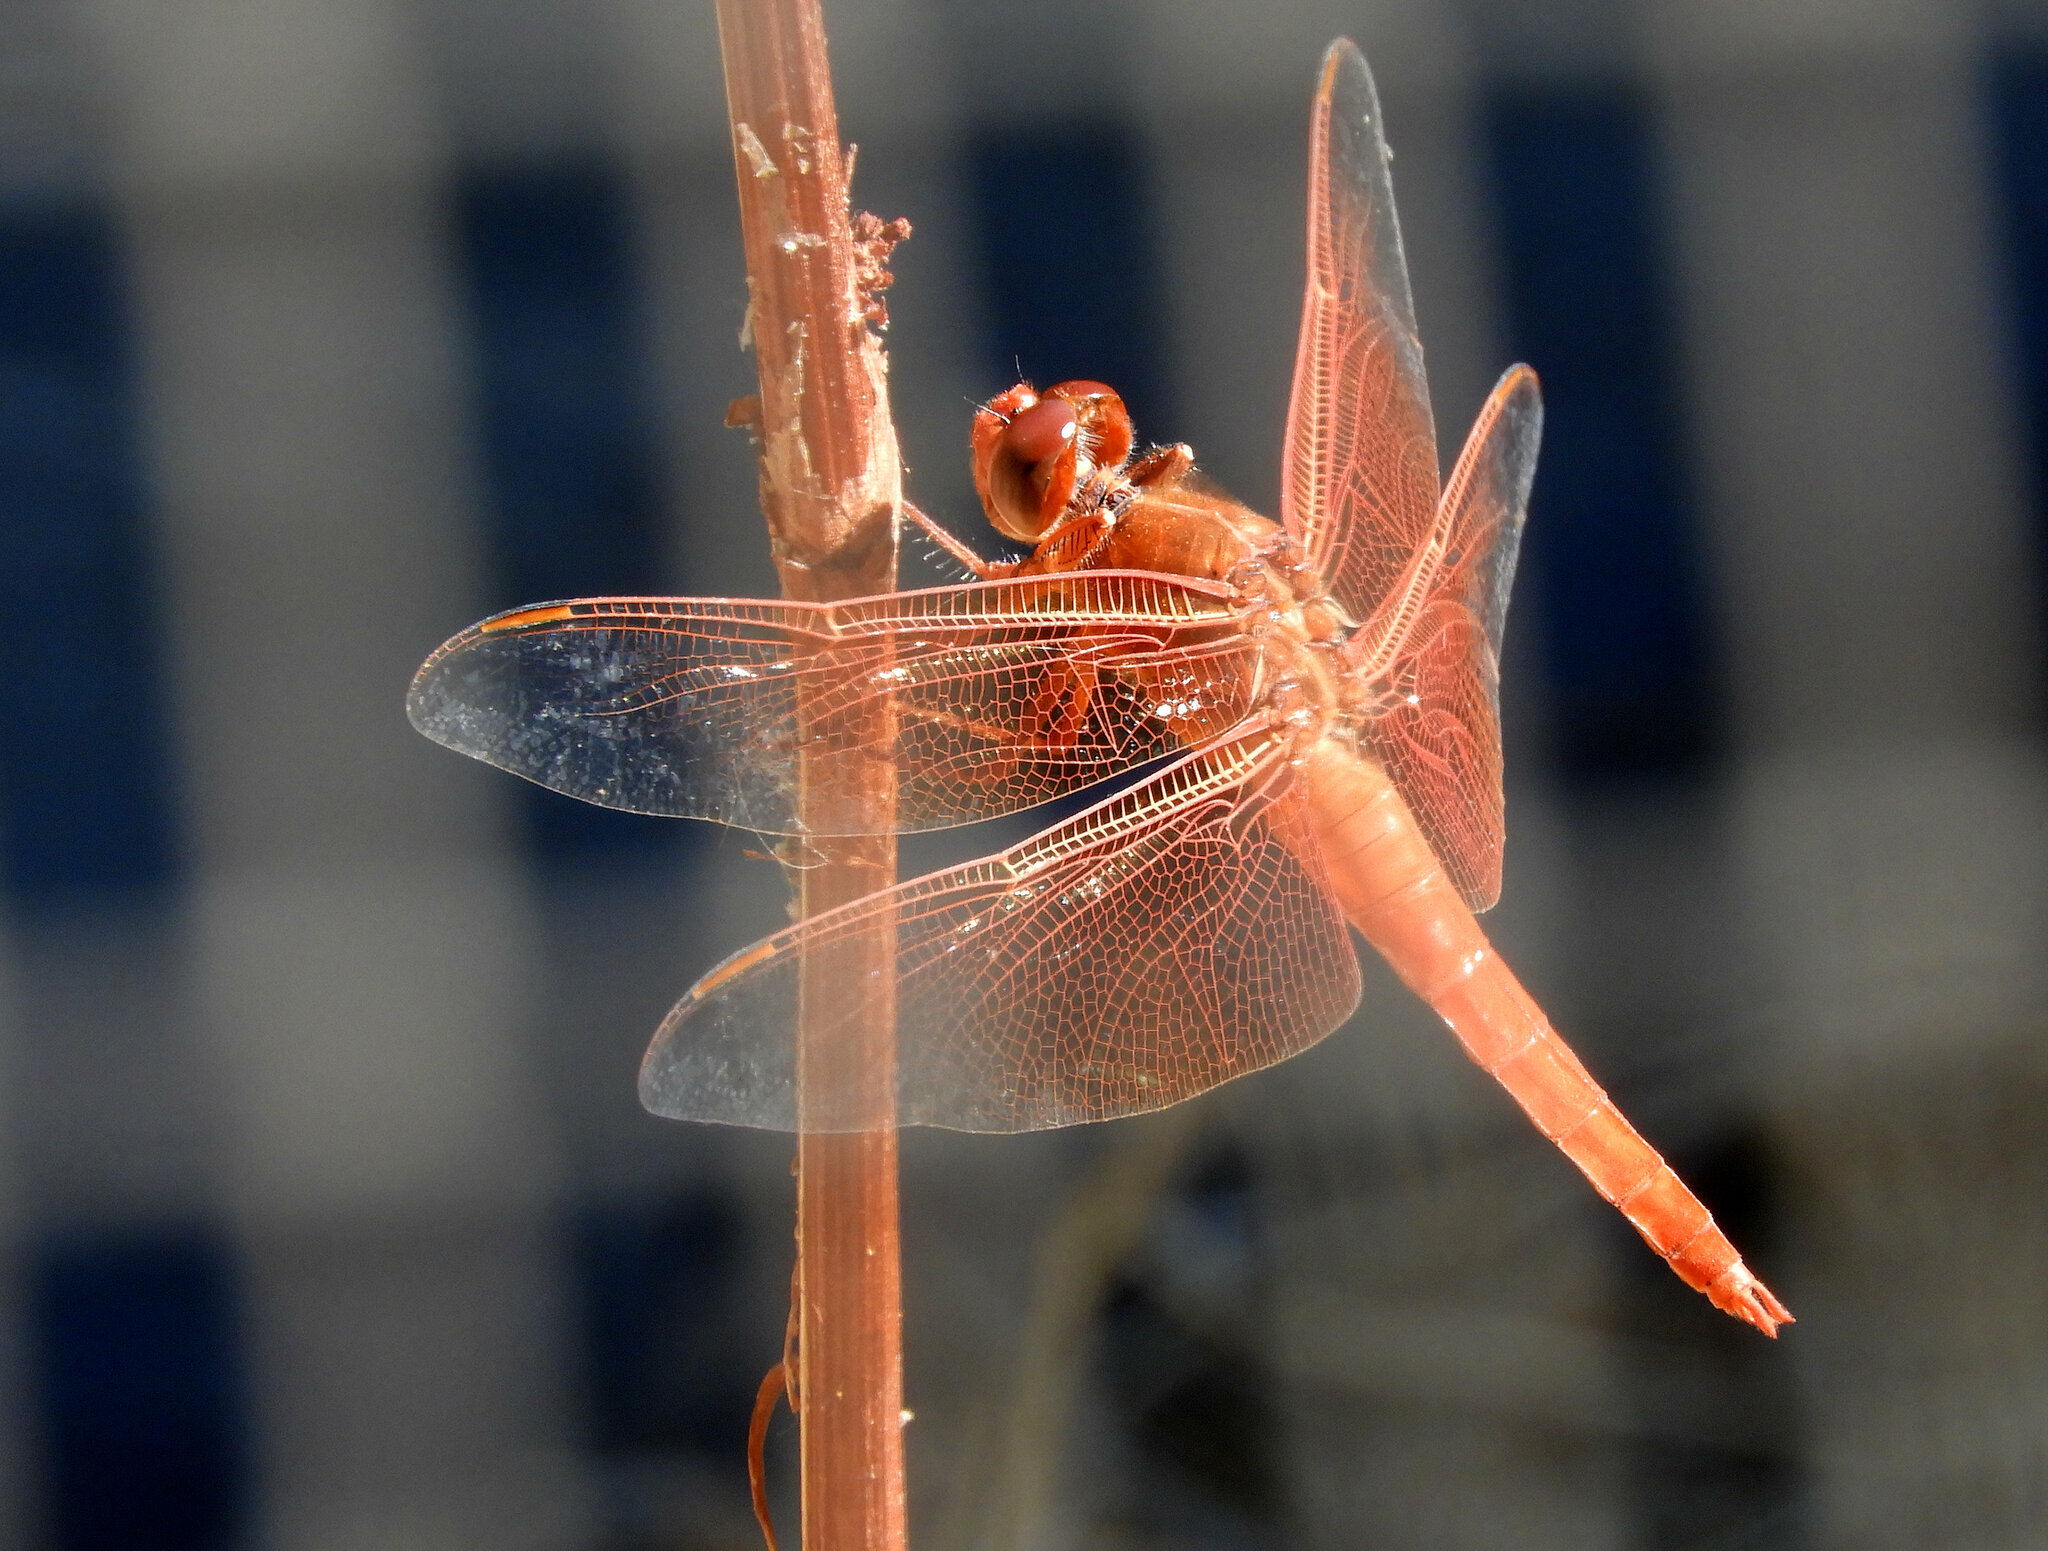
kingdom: Animalia
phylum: Arthropoda
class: Insecta
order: Odonata
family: Libellulidae
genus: Libellula
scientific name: Libellula saturata
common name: Flame skimmer
